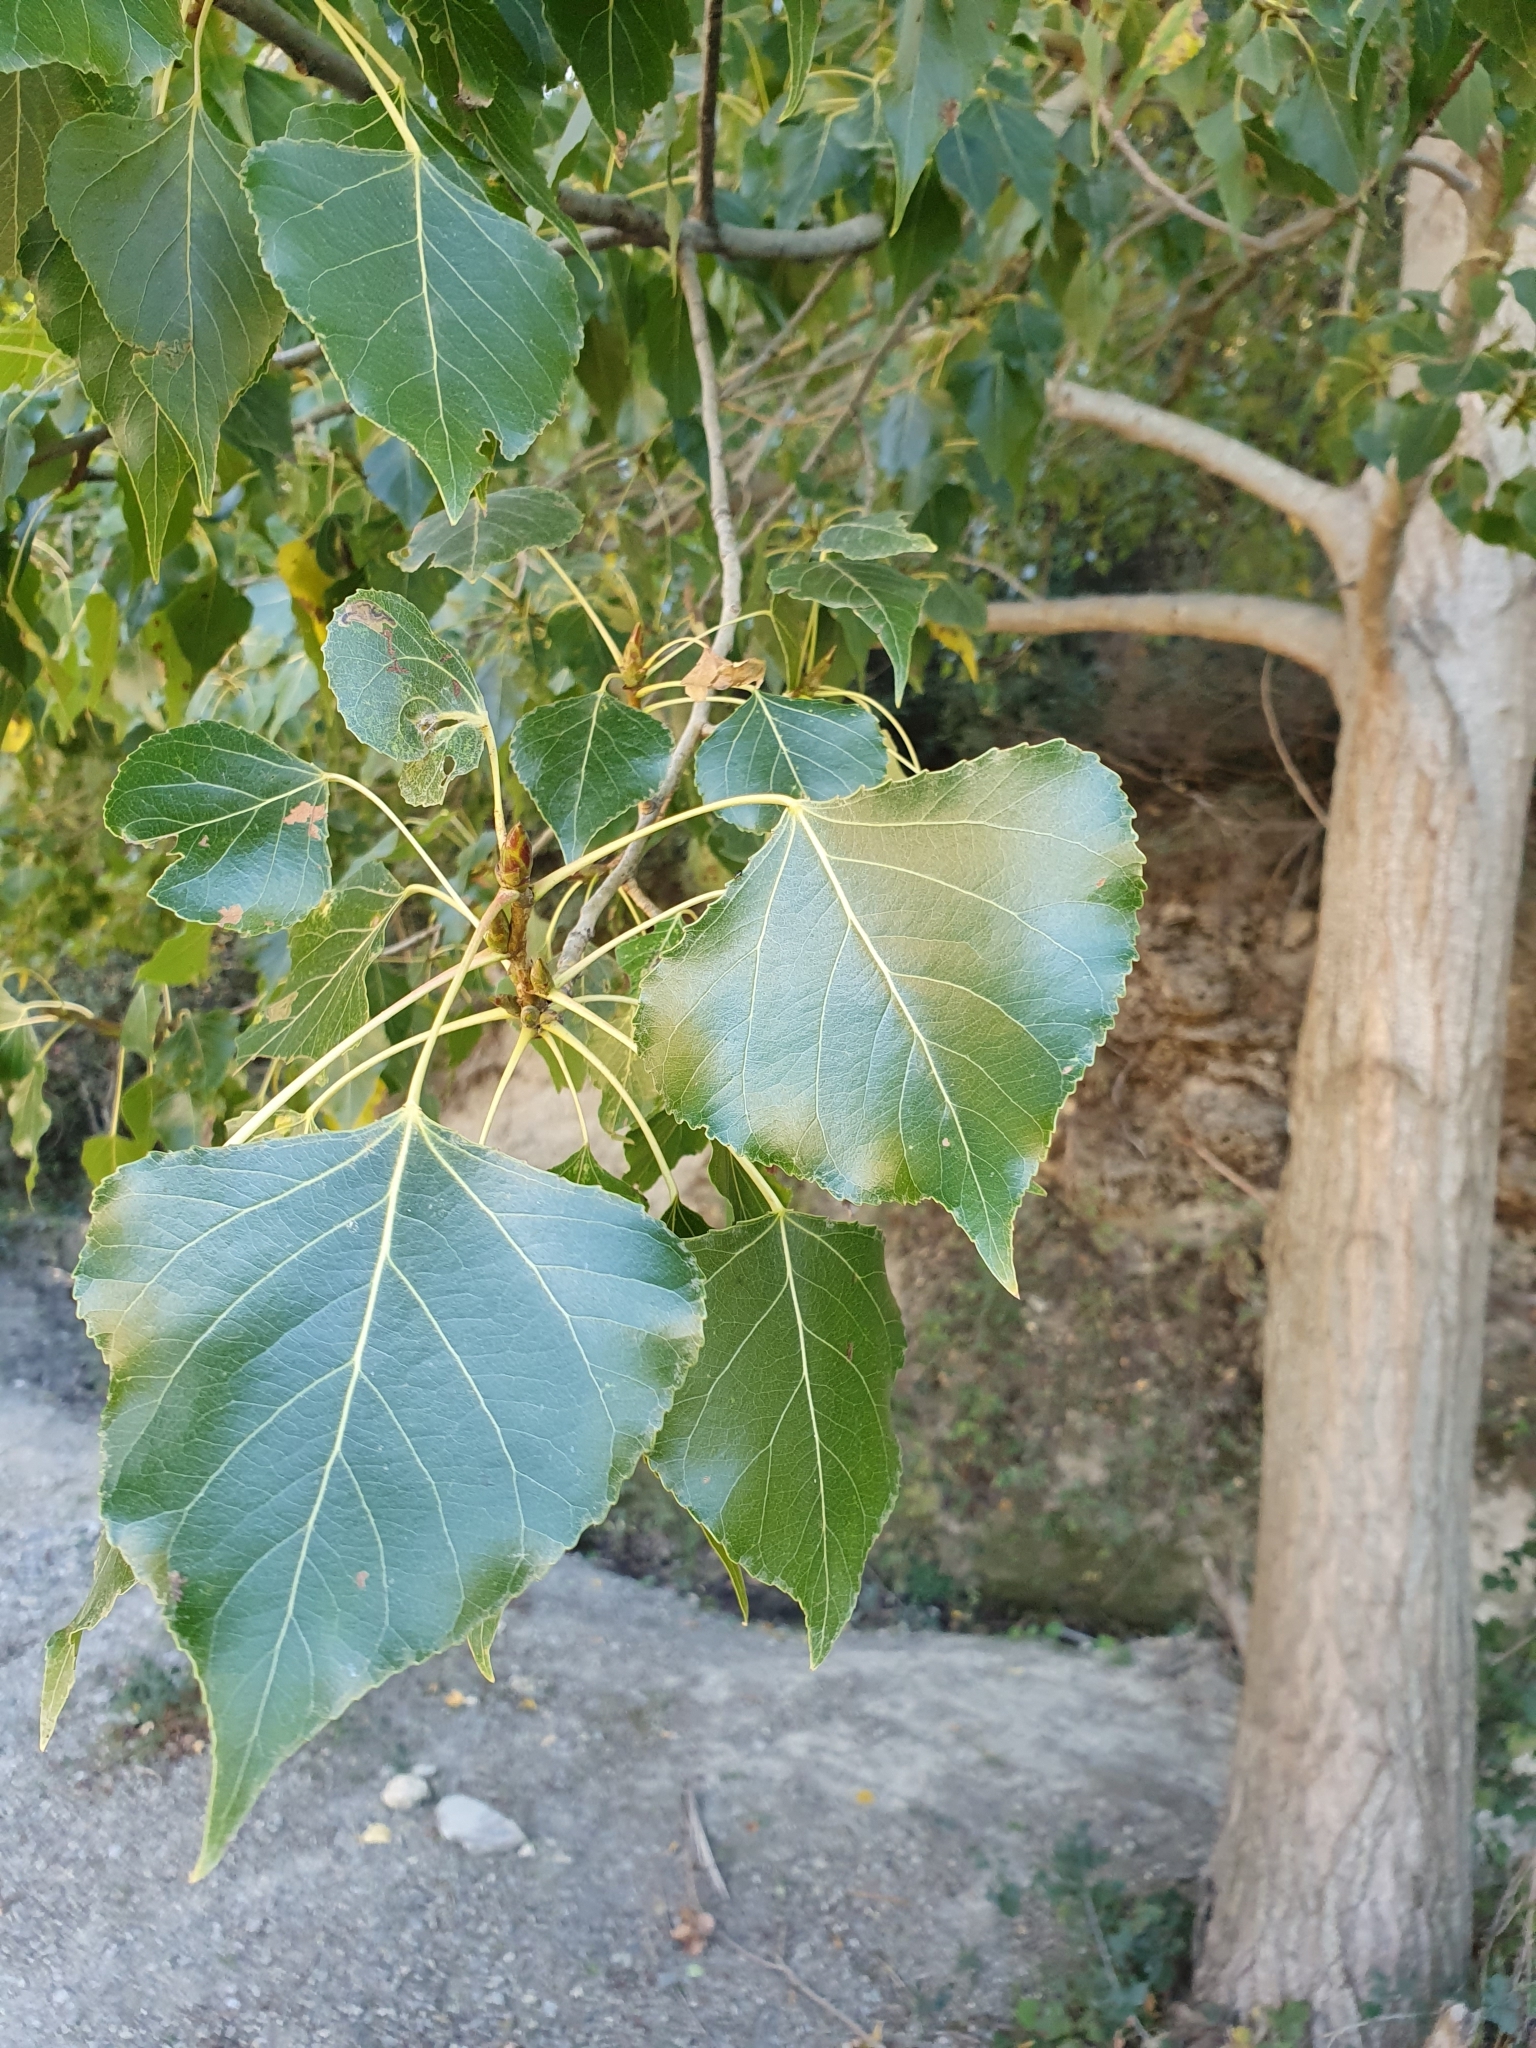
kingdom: Plantae
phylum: Tracheophyta
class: Magnoliopsida
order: Malpighiales
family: Salicaceae
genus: Populus
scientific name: Populus nigra
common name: Black poplar
